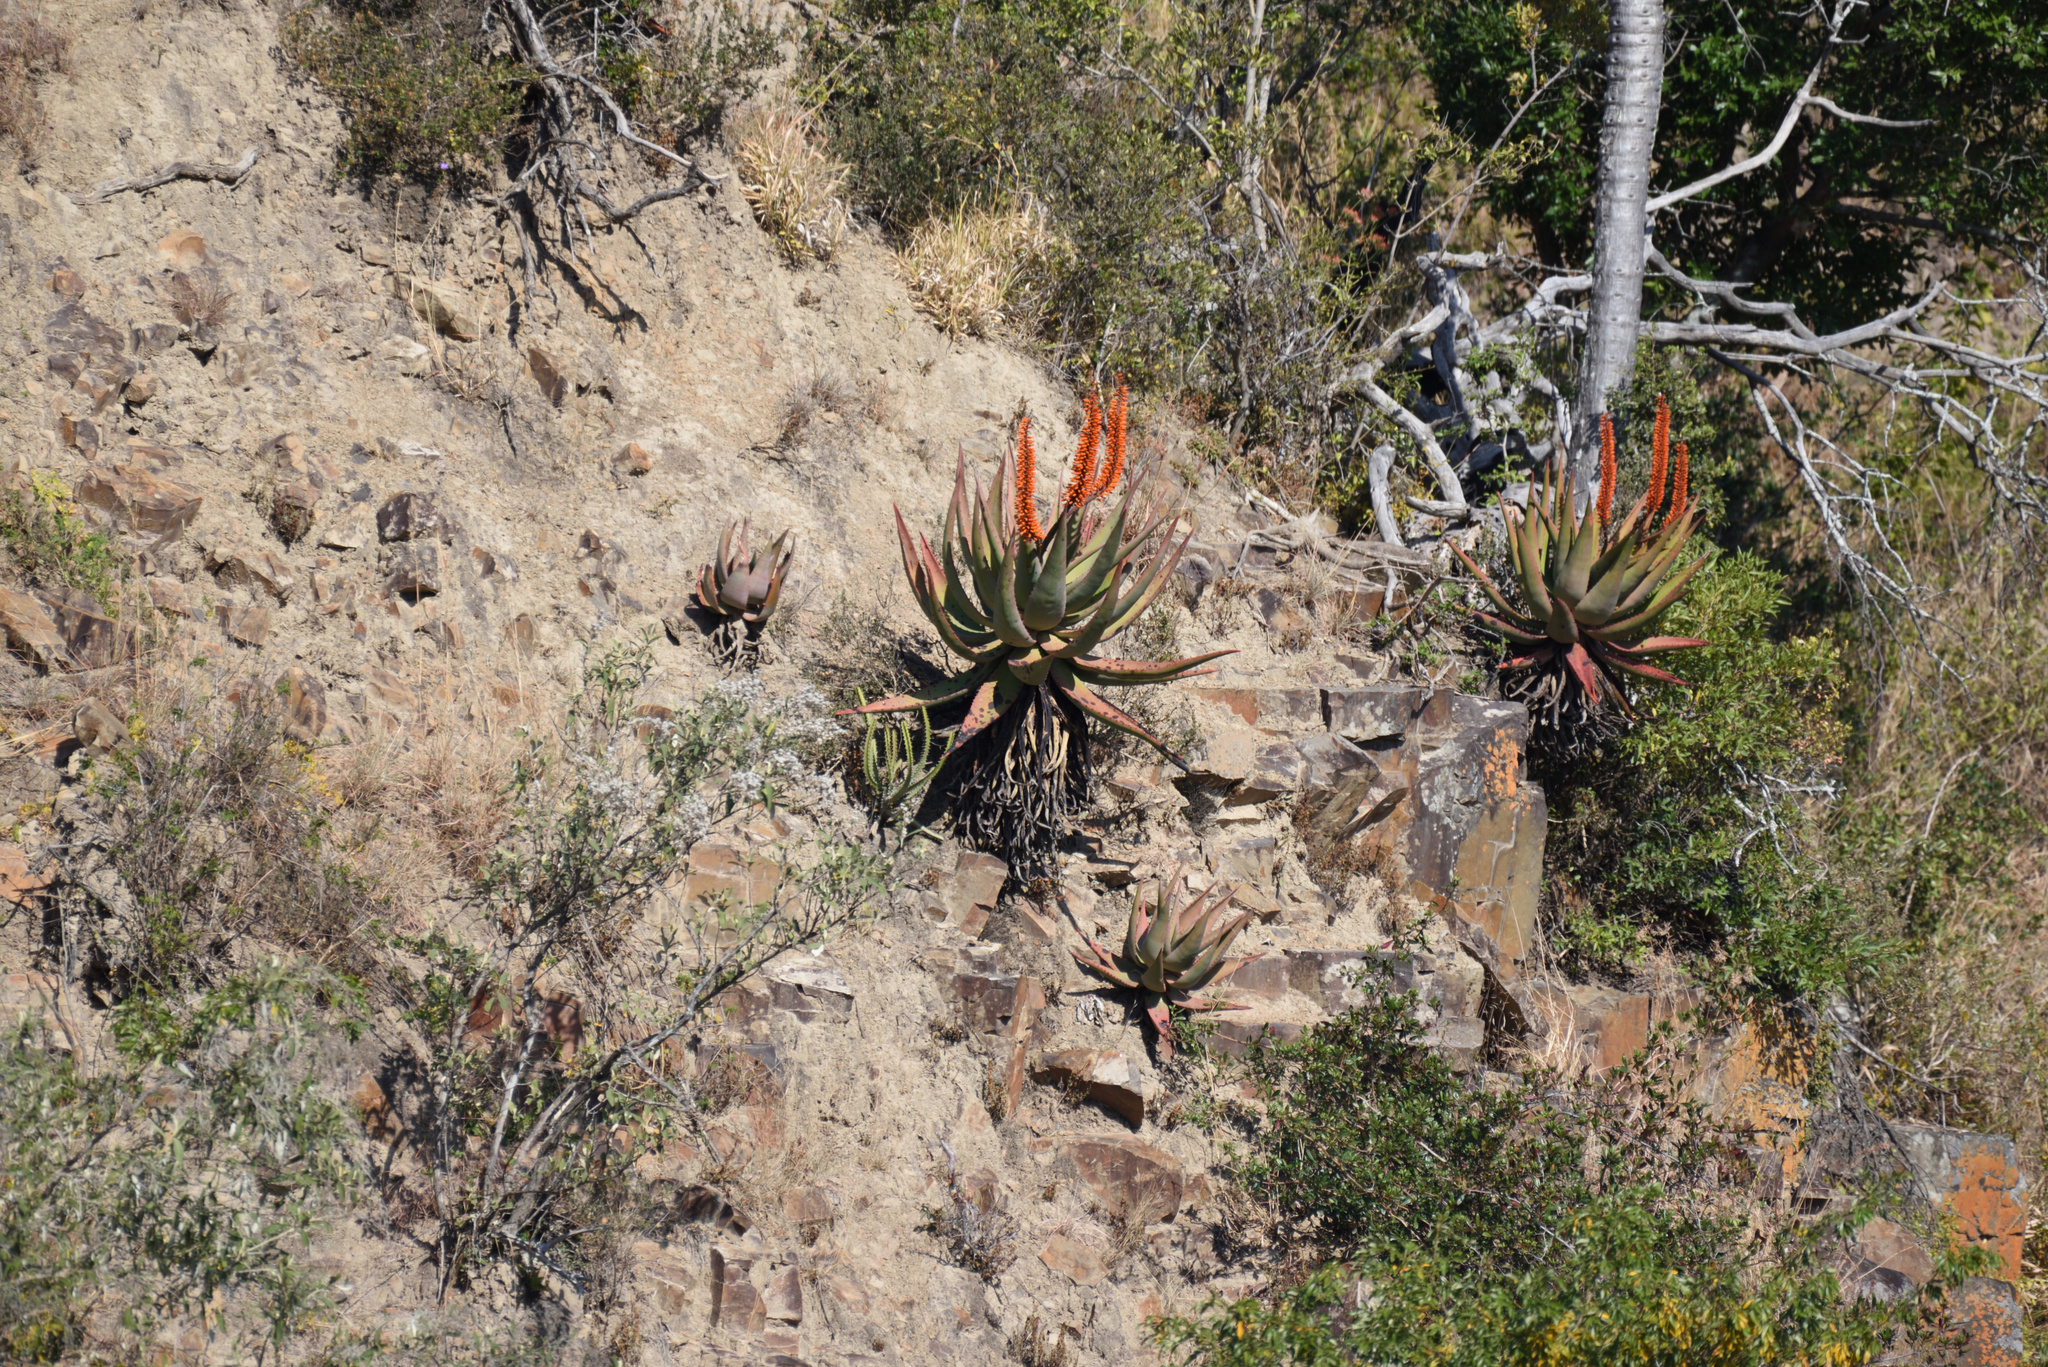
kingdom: Plantae
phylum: Tracheophyta
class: Liliopsida
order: Asparagales
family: Asphodelaceae
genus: Aloe
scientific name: Aloe ferox
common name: Bitter aloe
